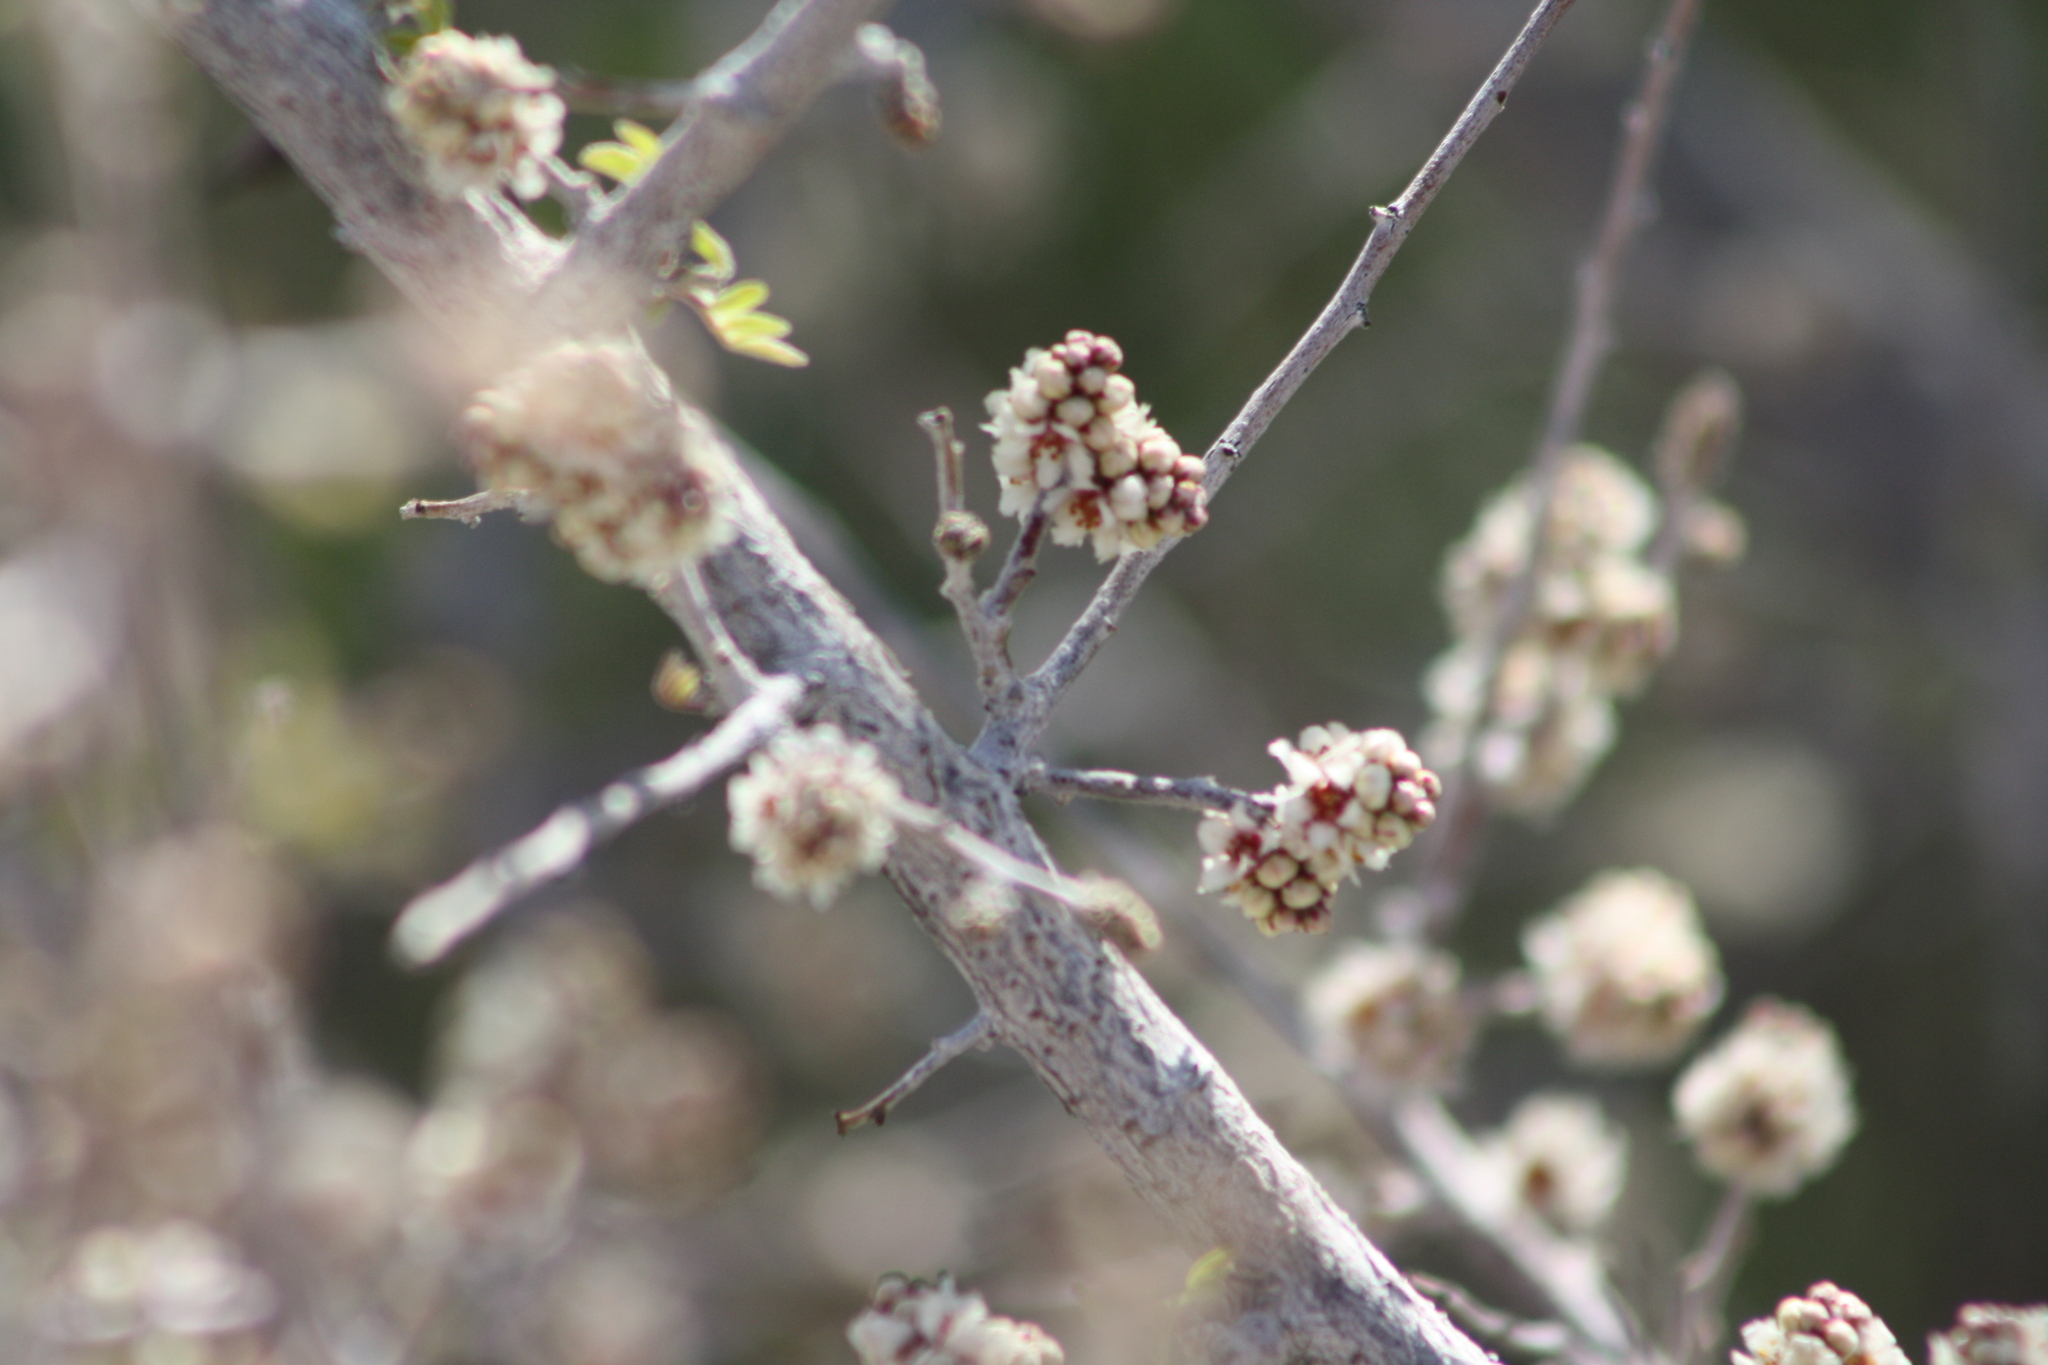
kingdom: Plantae
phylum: Tracheophyta
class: Magnoliopsida
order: Sapindales
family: Anacardiaceae
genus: Rhus
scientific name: Rhus microphylla
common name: Desert sumac
